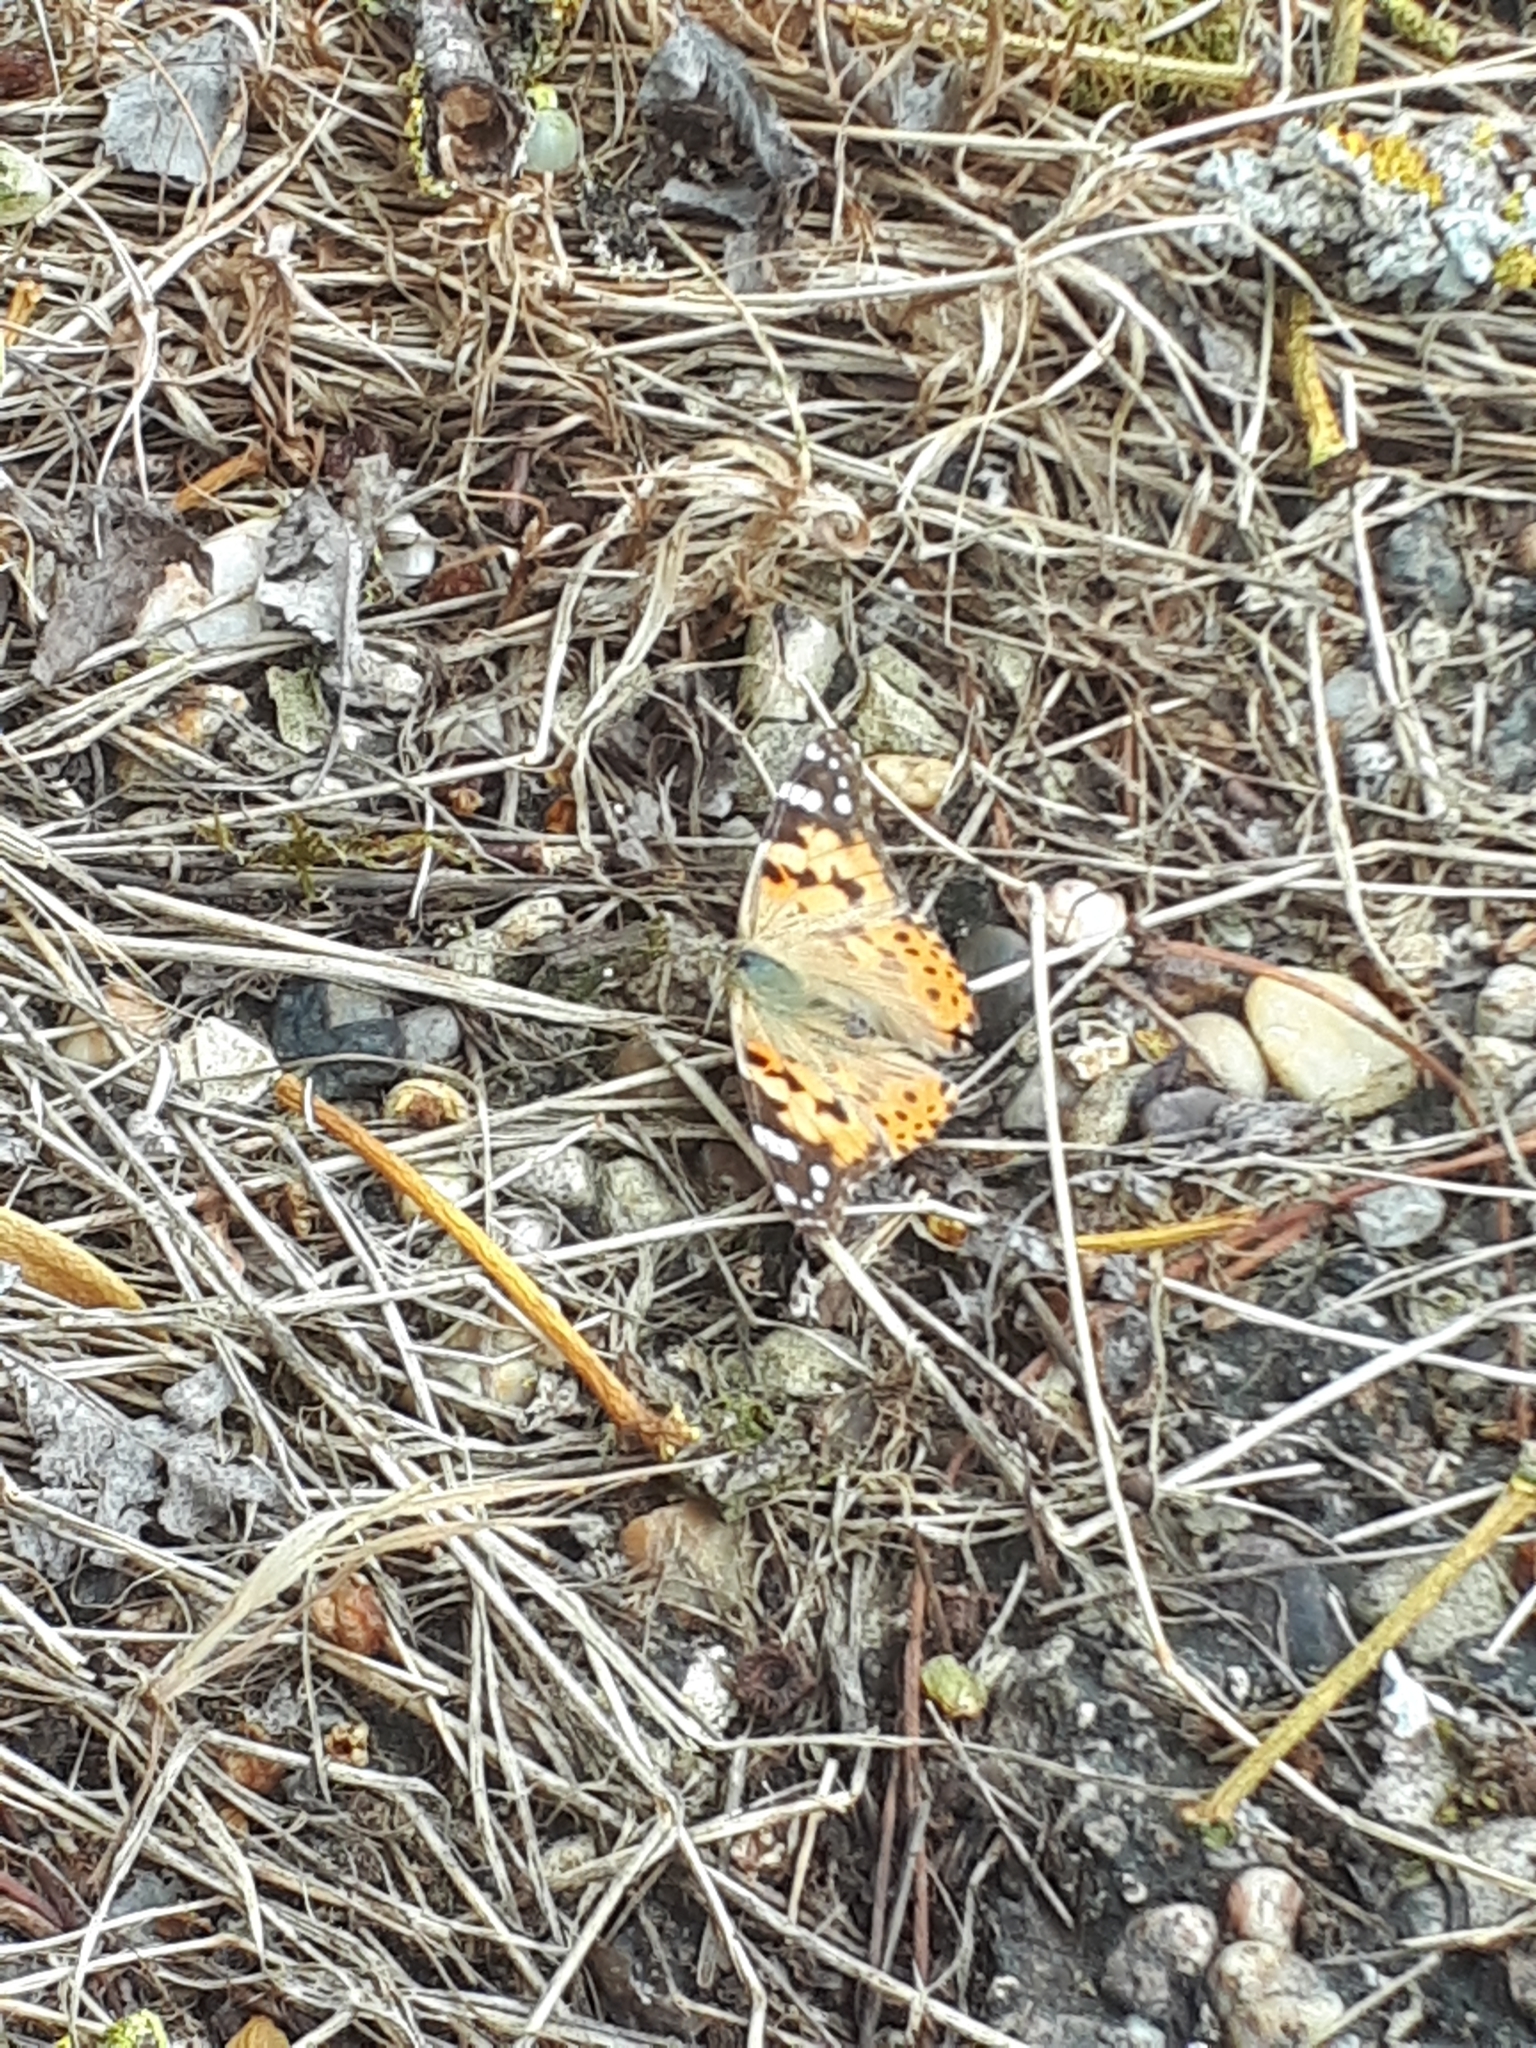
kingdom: Animalia
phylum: Arthropoda
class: Insecta
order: Lepidoptera
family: Nymphalidae
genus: Vanessa
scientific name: Vanessa cardui
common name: Painted lady
